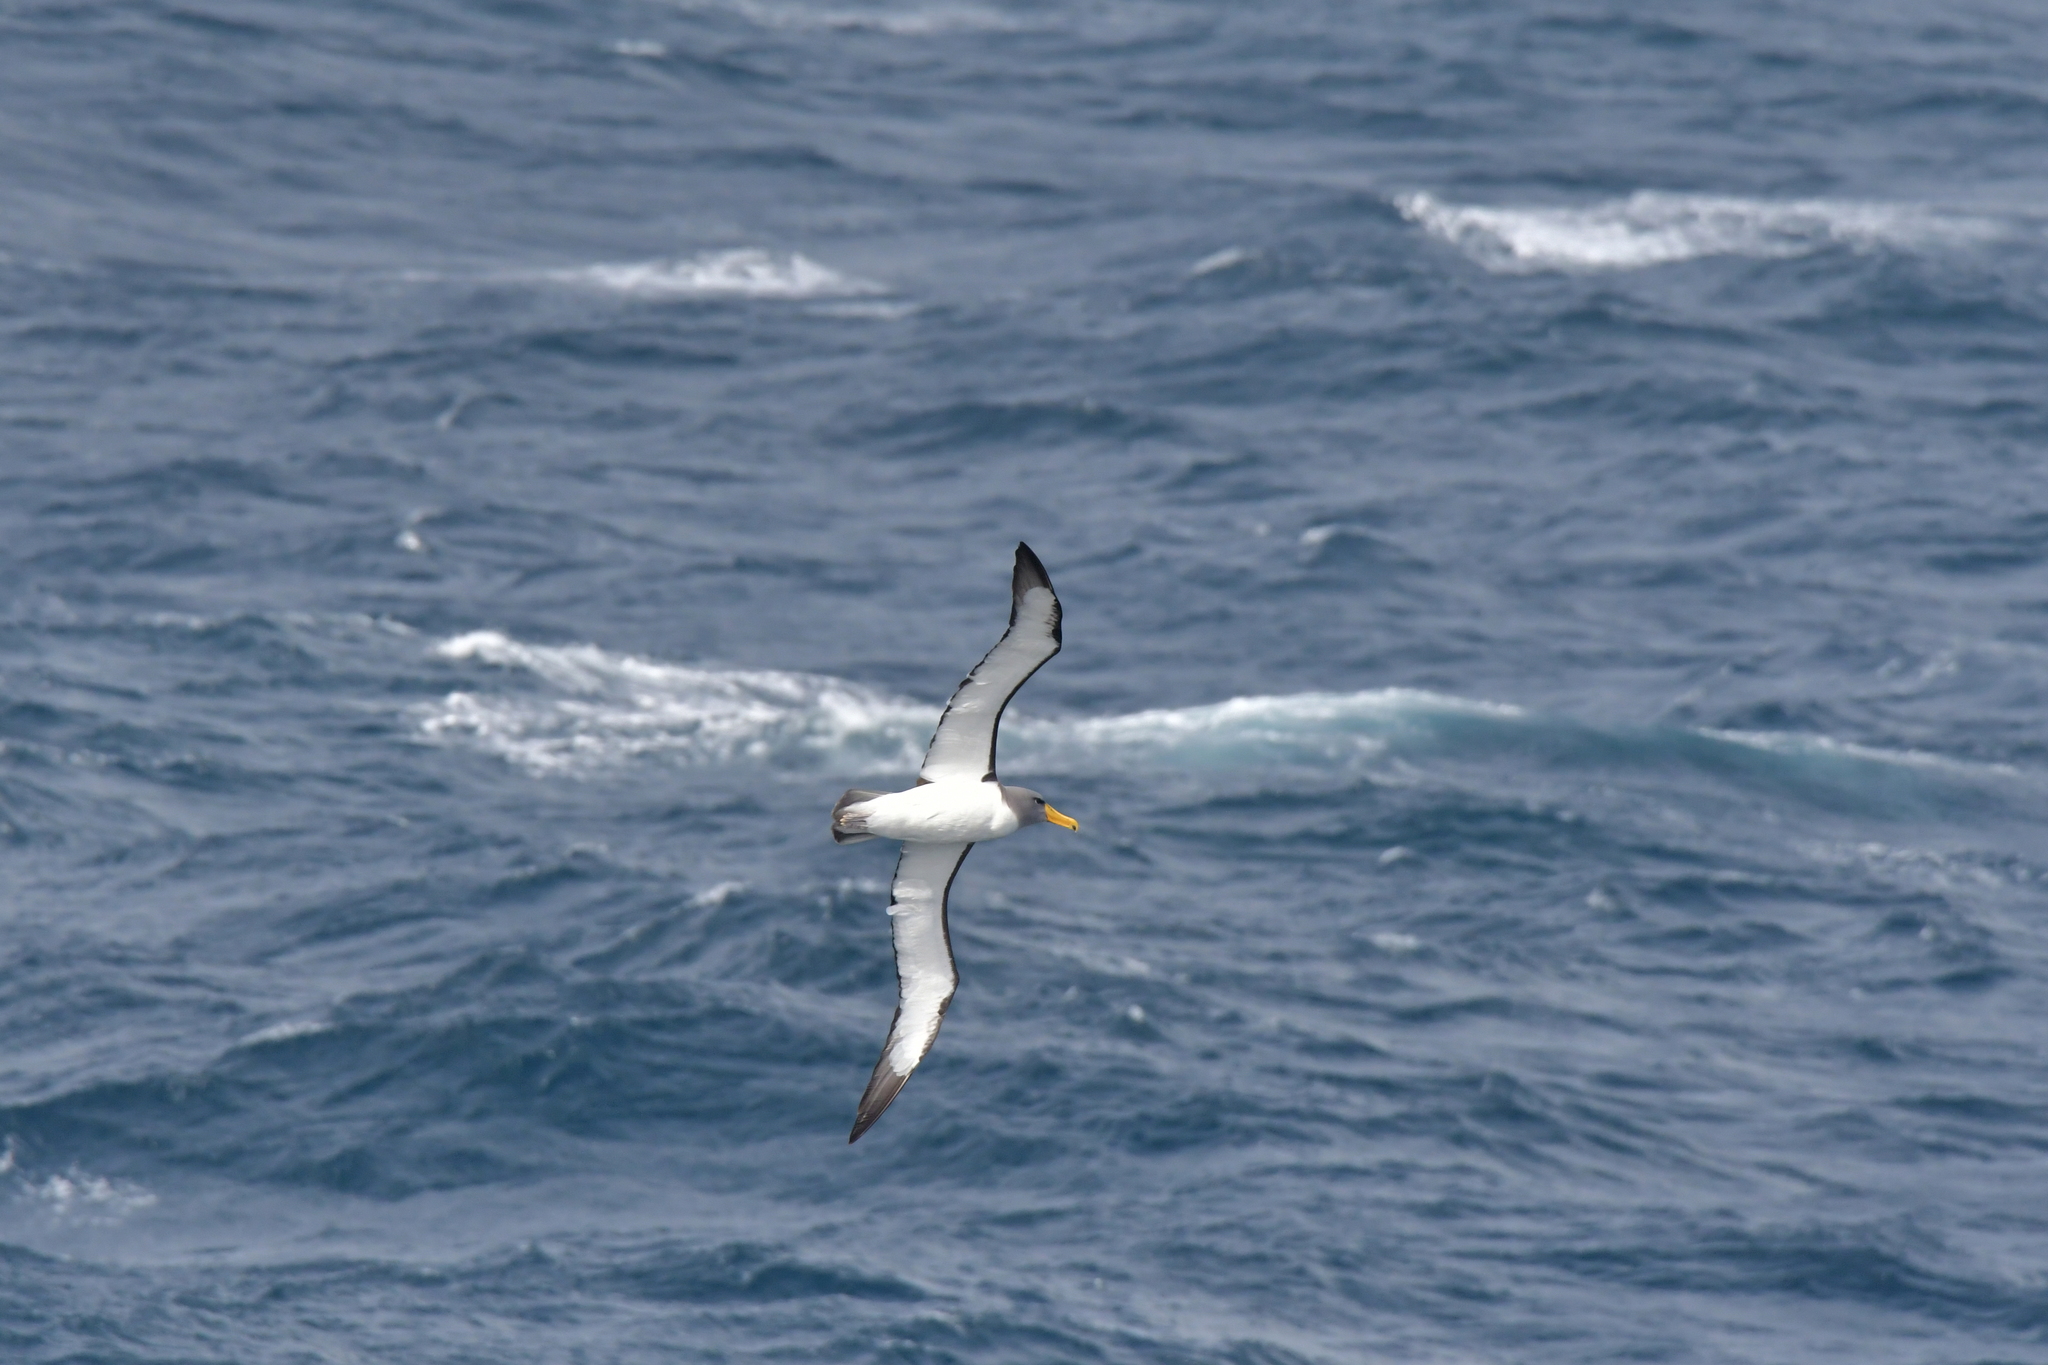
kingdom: Animalia
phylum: Chordata
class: Aves
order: Procellariiformes
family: Diomedeidae
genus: Thalassarche
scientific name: Thalassarche eremita
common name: Chatham albatross
